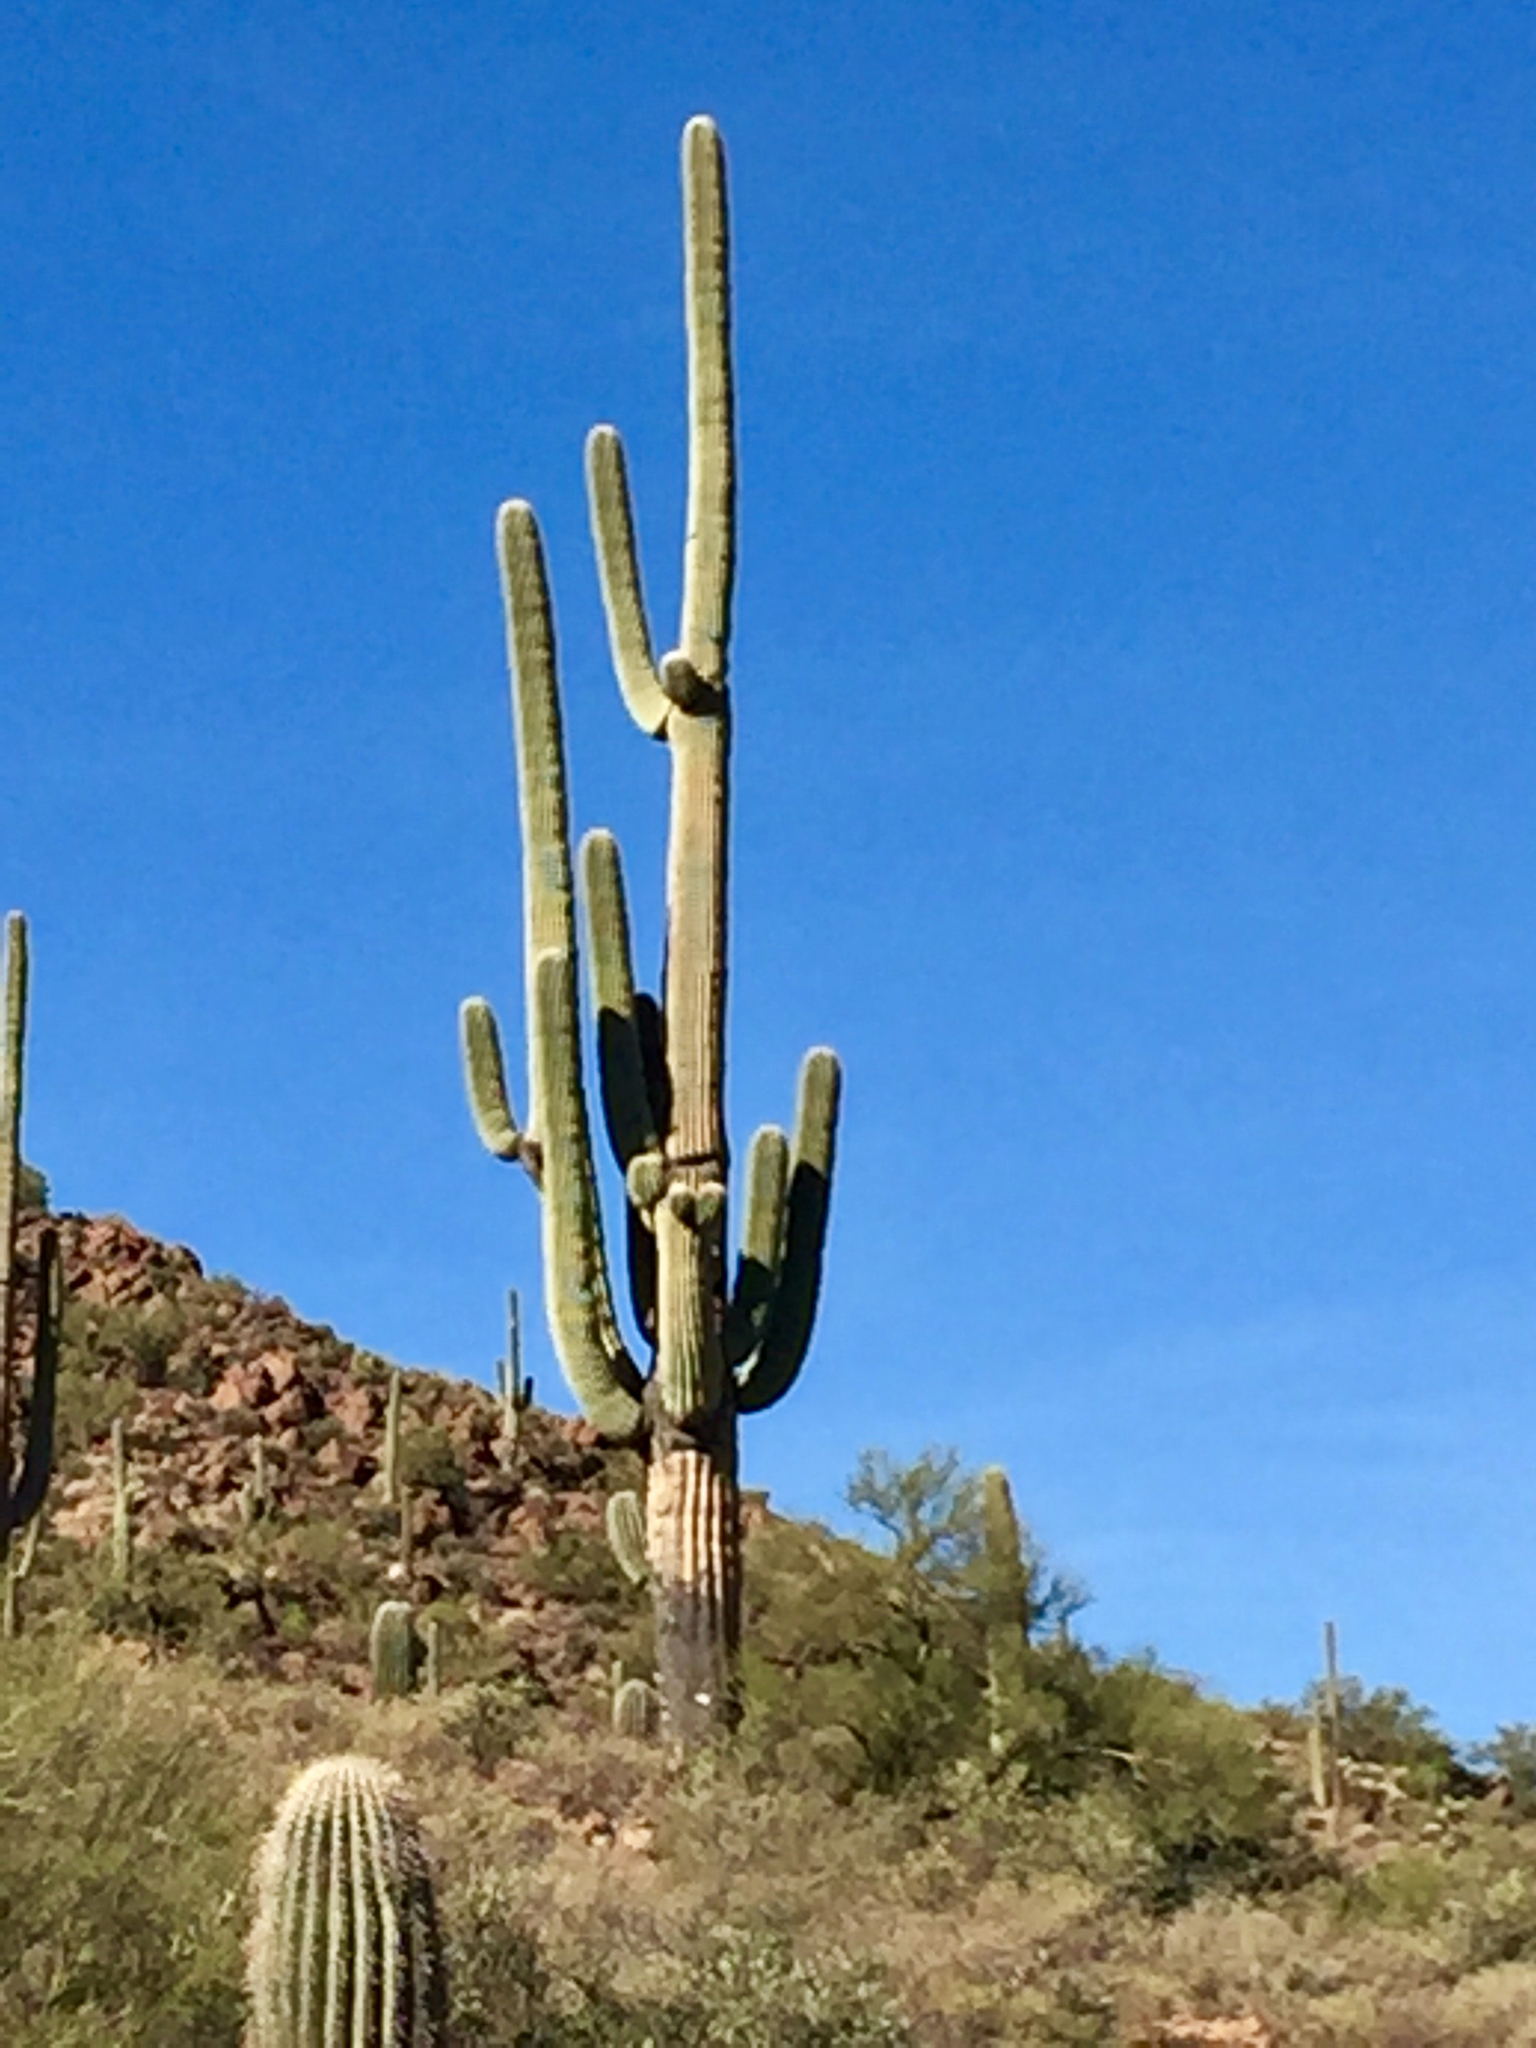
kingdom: Plantae
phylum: Tracheophyta
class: Magnoliopsida
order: Caryophyllales
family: Cactaceae
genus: Carnegiea
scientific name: Carnegiea gigantea
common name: Saguaro
